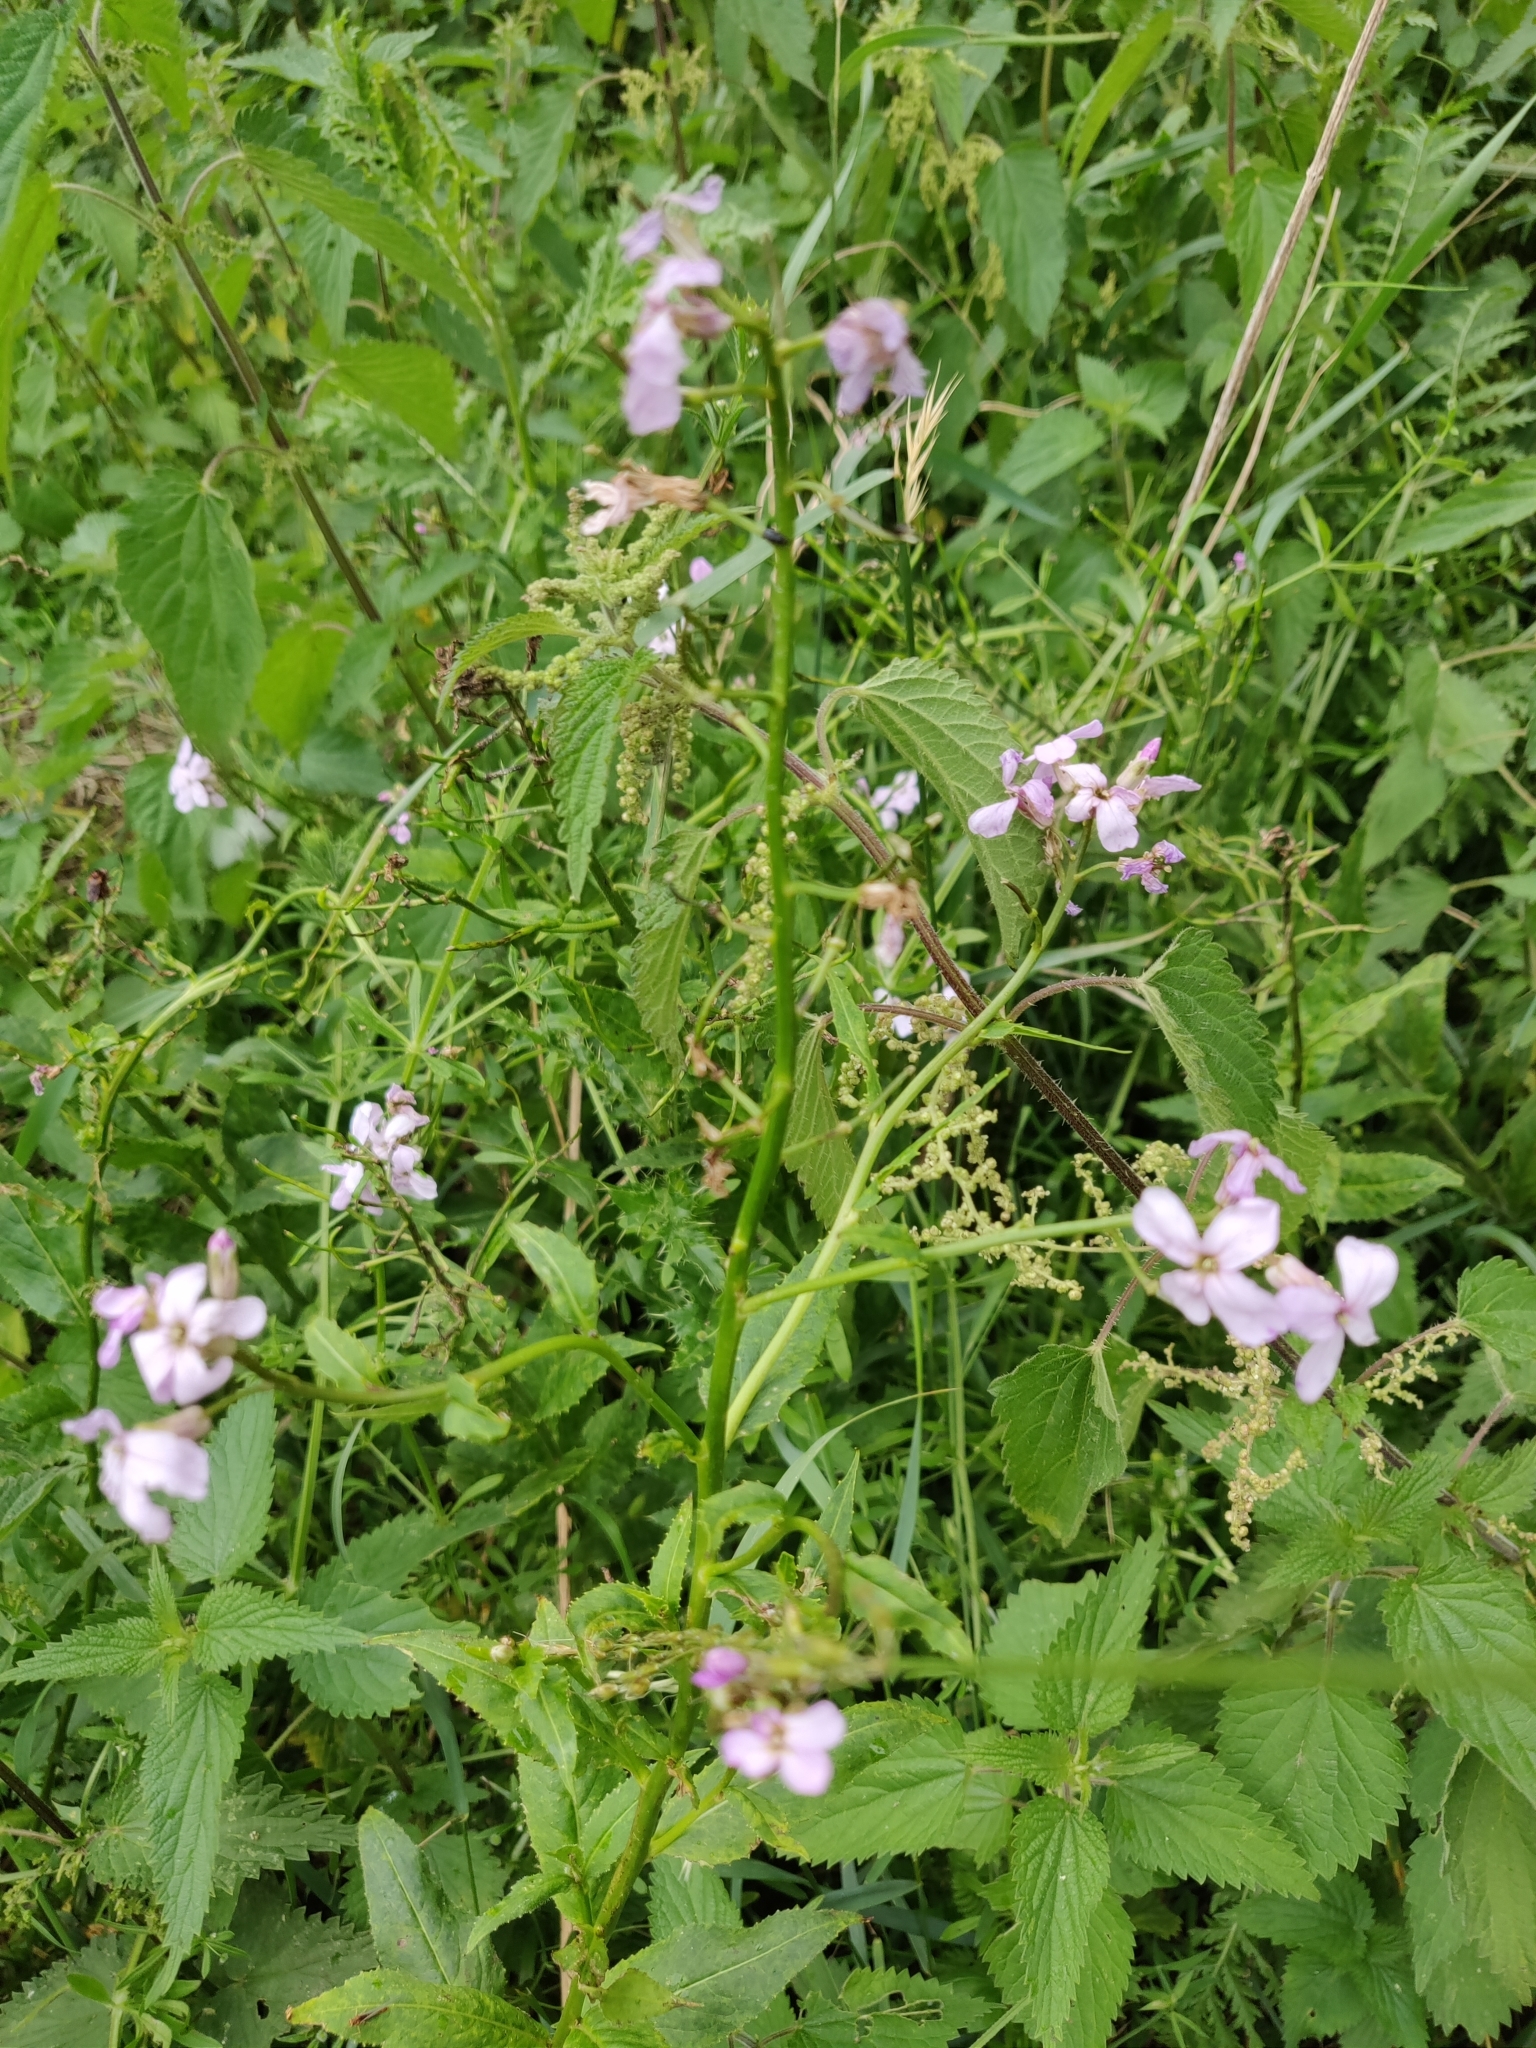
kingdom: Plantae
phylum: Tracheophyta
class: Magnoliopsida
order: Brassicales
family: Brassicaceae
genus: Hesperis
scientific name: Hesperis matronalis
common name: Dame's-violet
